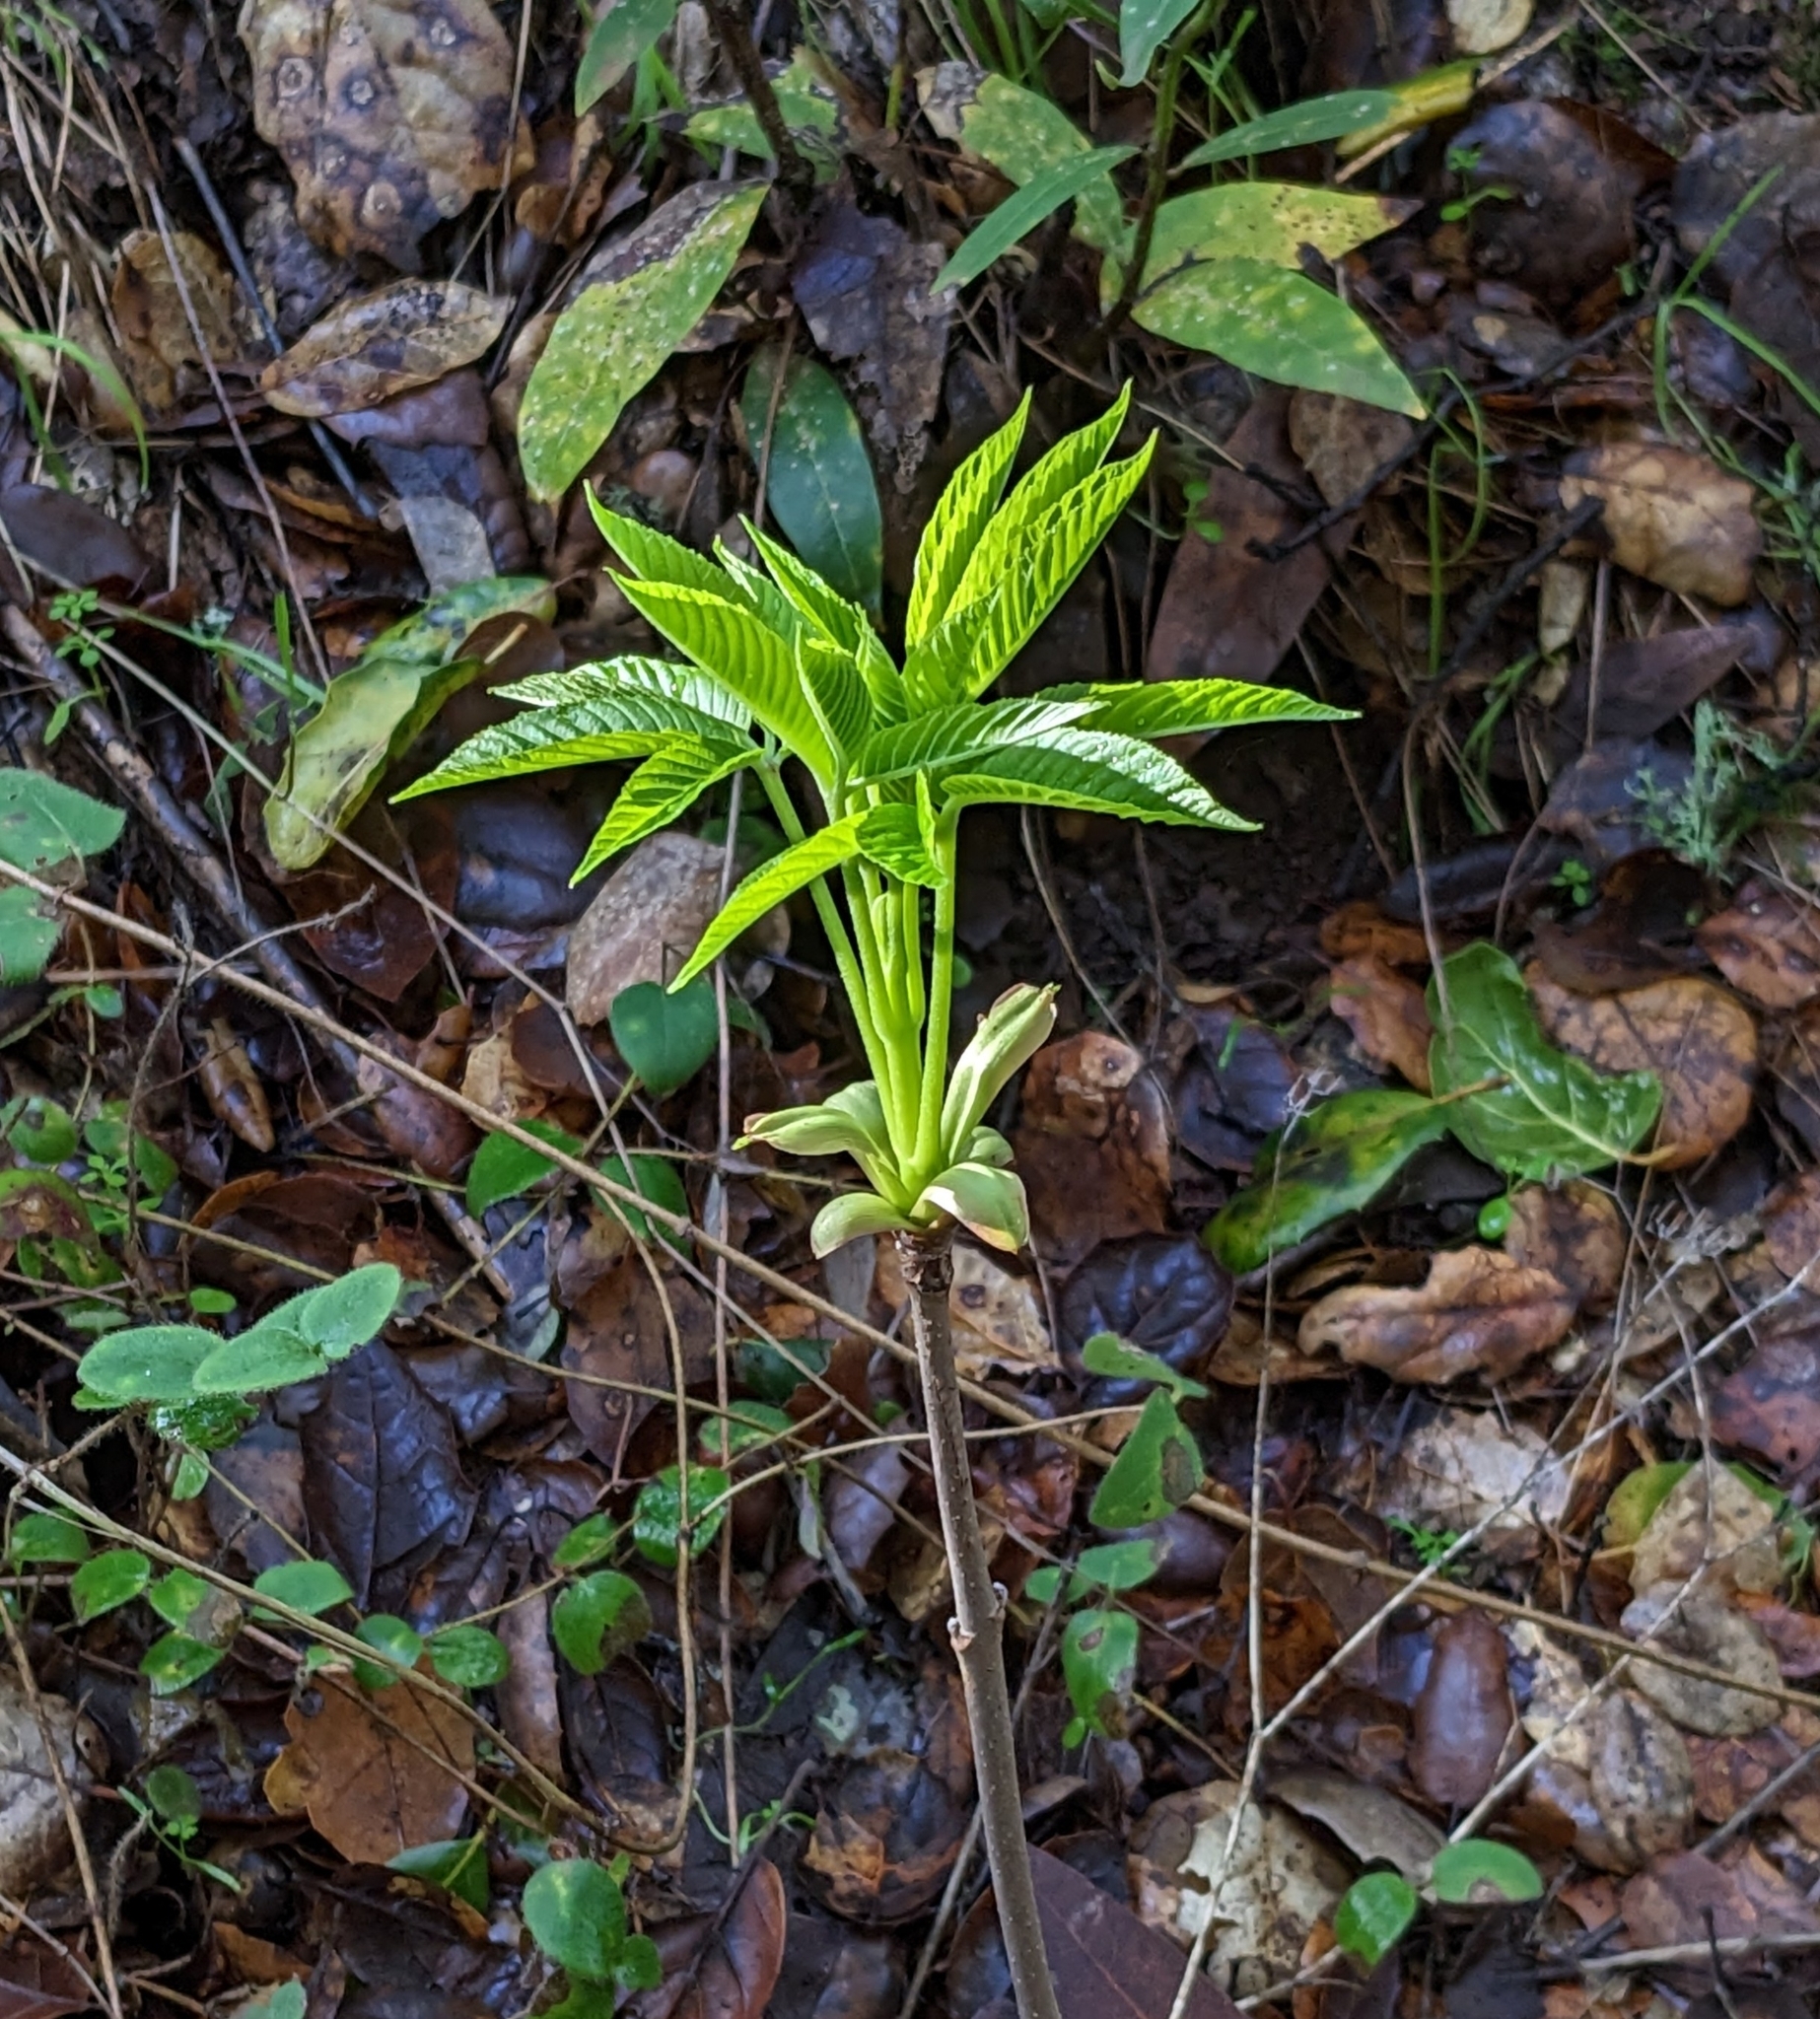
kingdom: Plantae
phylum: Tracheophyta
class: Magnoliopsida
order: Sapindales
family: Sapindaceae
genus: Aesculus
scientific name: Aesculus californica
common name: California buckeye
